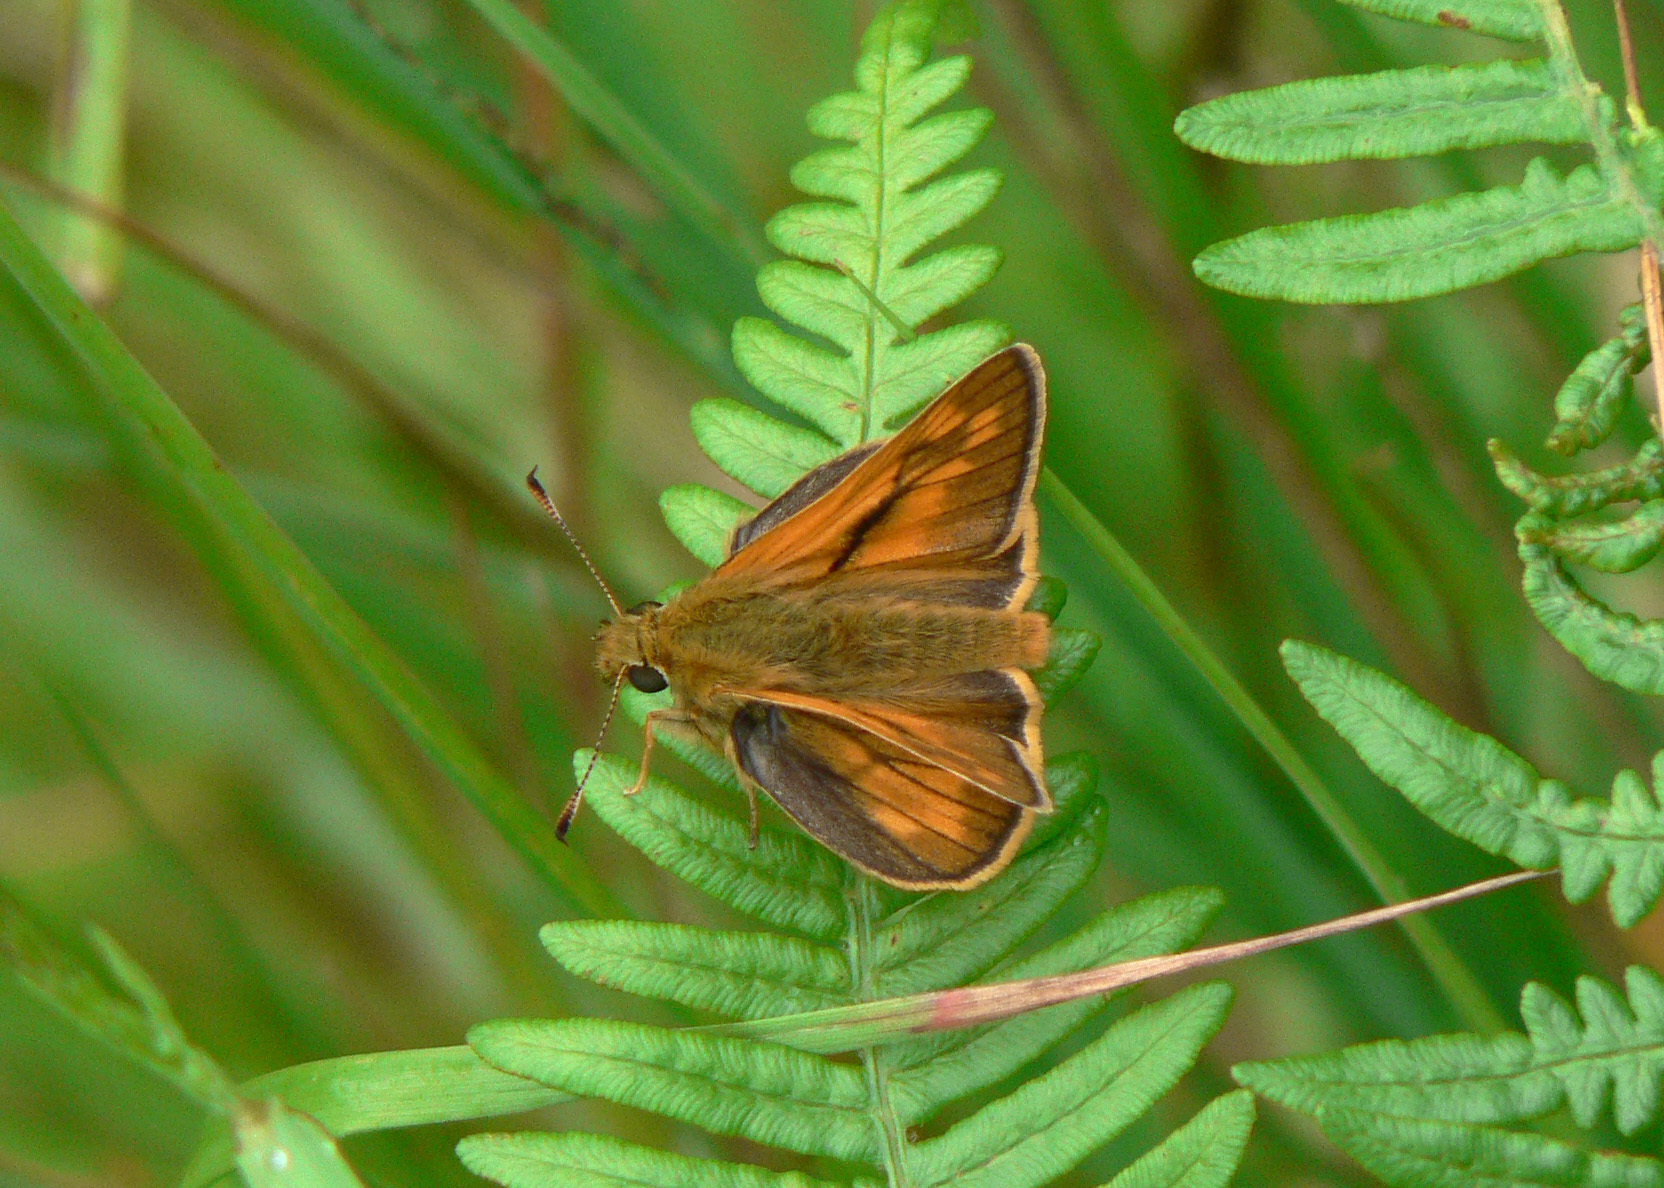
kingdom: Animalia
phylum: Arthropoda
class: Insecta
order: Lepidoptera
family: Hesperiidae
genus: Ochlodes
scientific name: Ochlodes venata
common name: Large skipper
